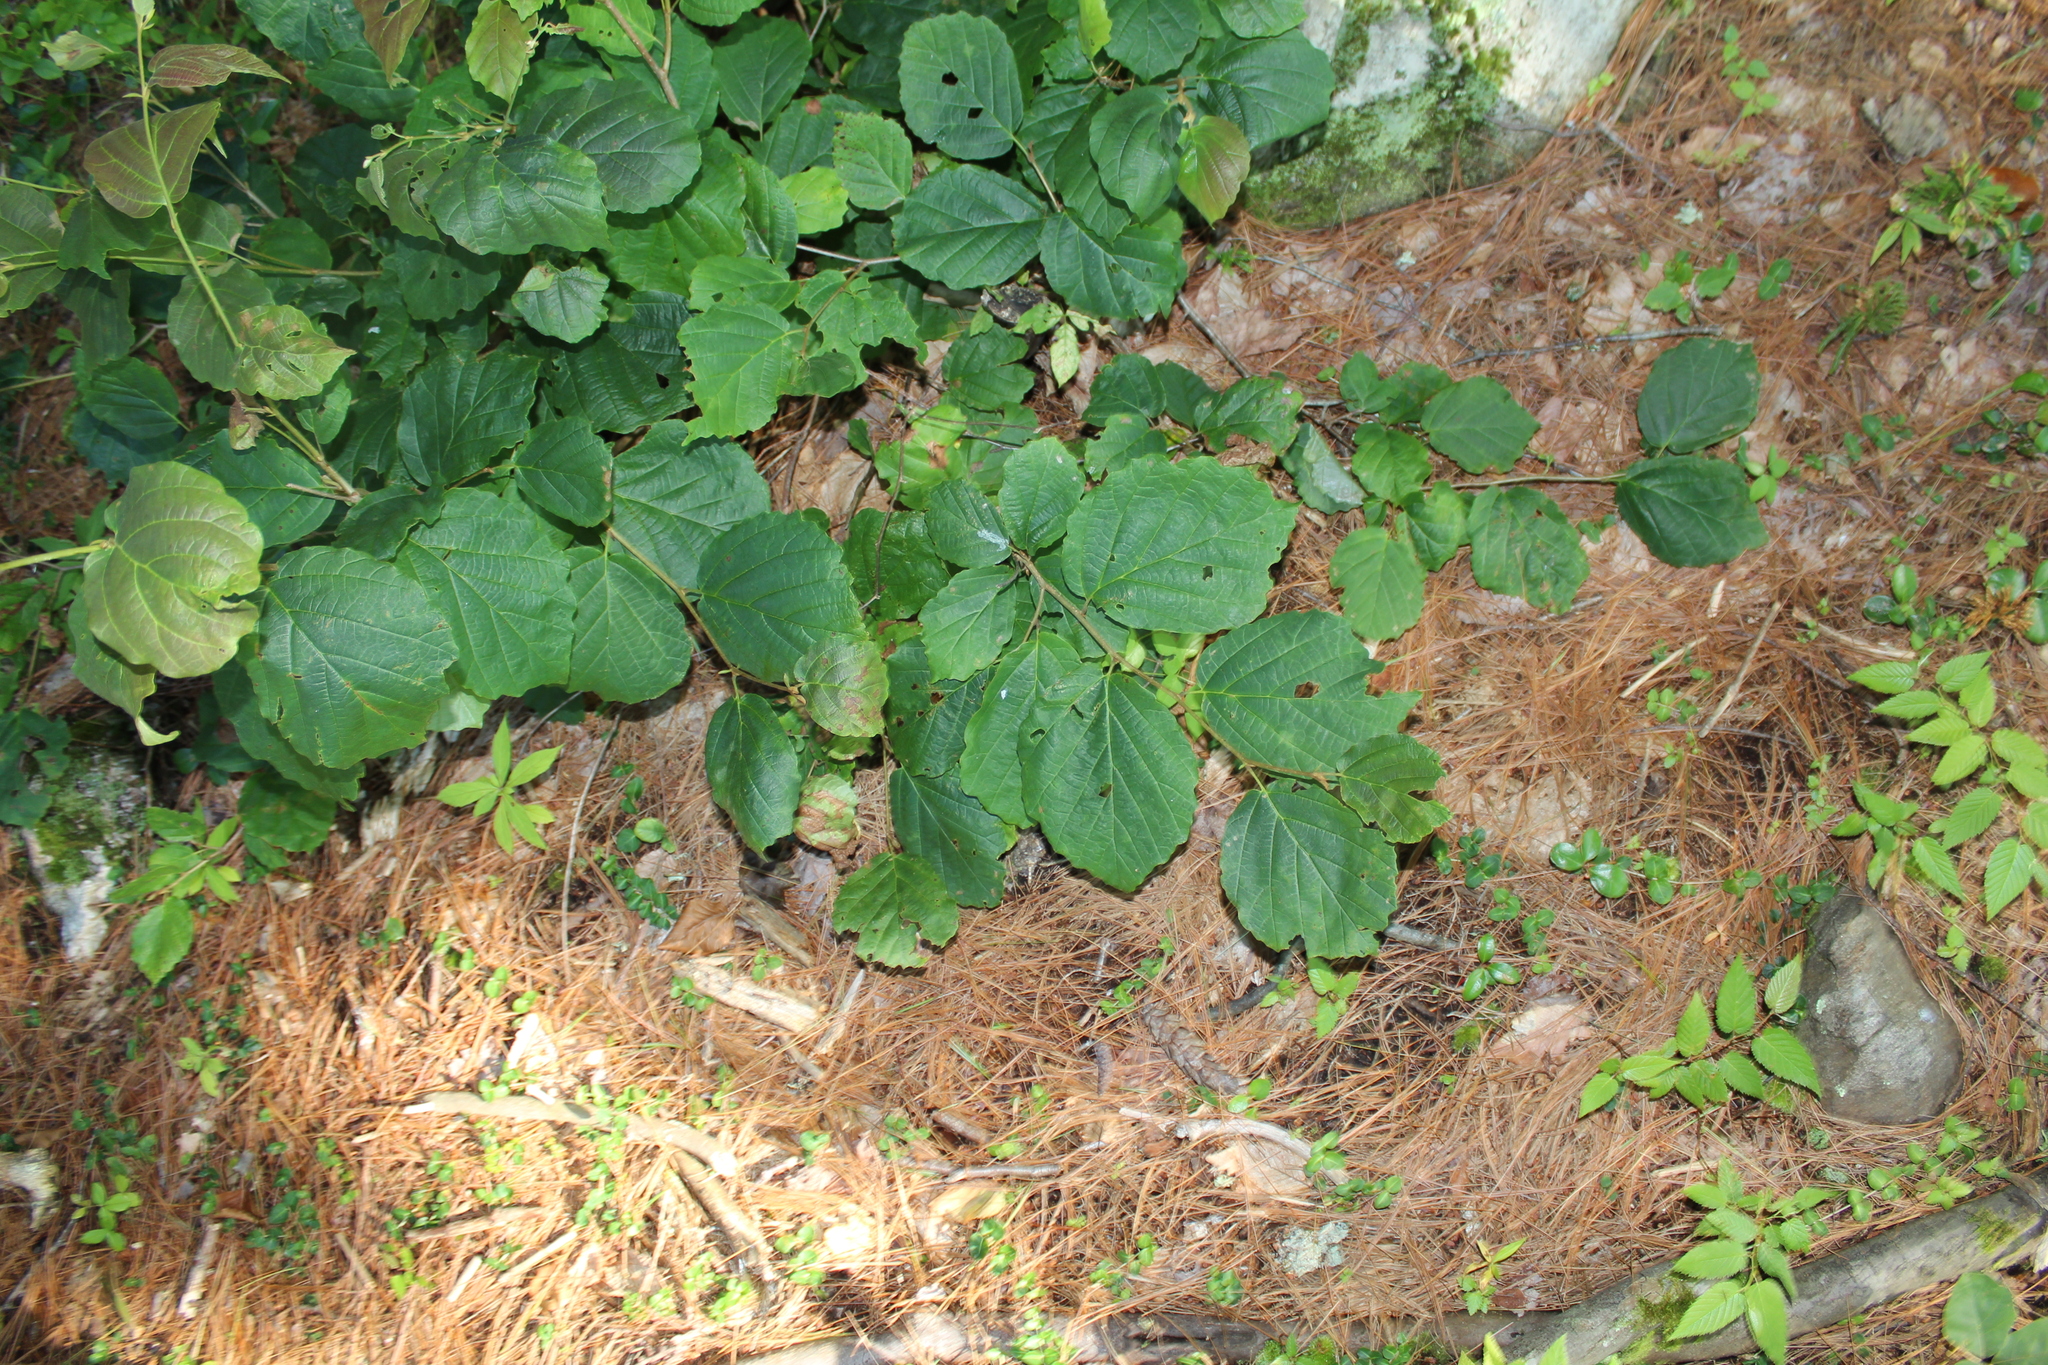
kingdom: Plantae
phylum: Tracheophyta
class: Magnoliopsida
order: Saxifragales
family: Hamamelidaceae
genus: Hamamelis
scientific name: Hamamelis virginiana
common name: Witch-hazel
